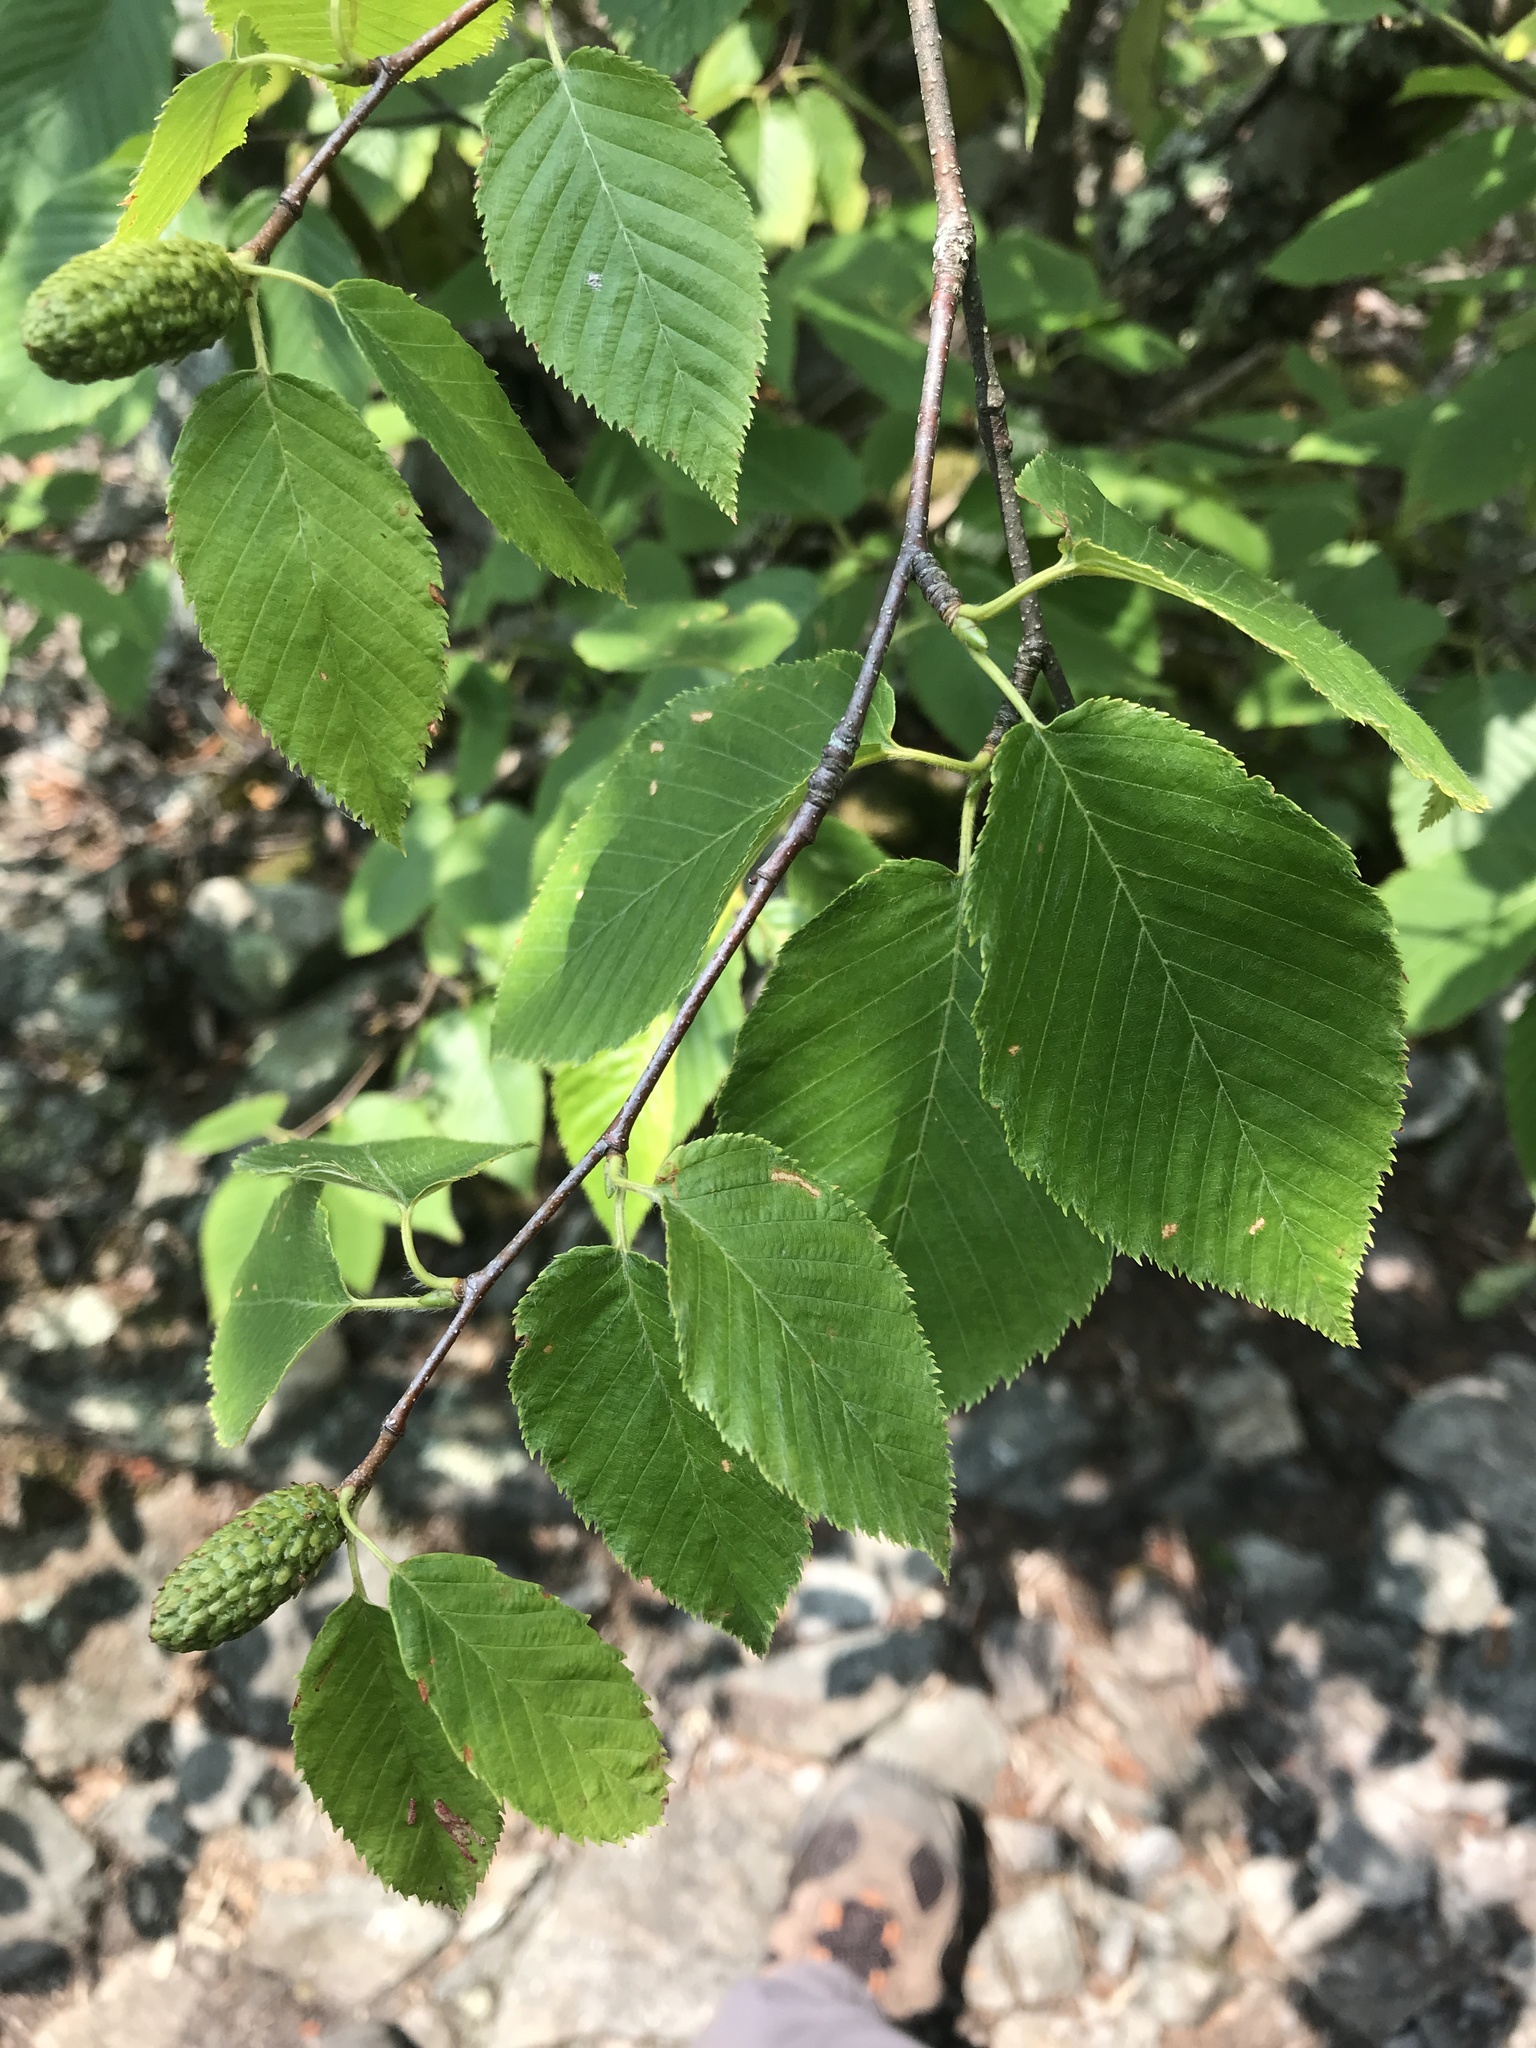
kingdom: Plantae
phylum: Tracheophyta
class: Magnoliopsida
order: Fagales
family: Betulaceae
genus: Betula
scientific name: Betula alleghaniensis
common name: Yellow birch
